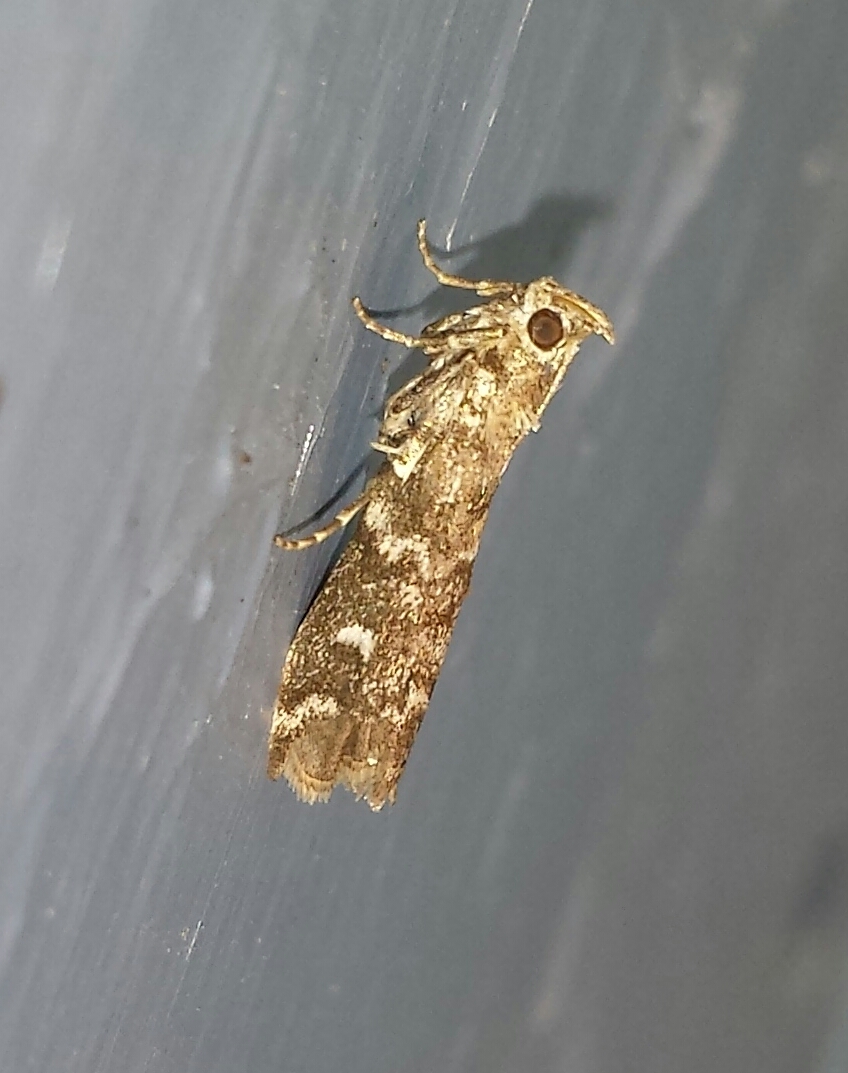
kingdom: Animalia
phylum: Arthropoda
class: Insecta
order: Lepidoptera
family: Pyralidae
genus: Dioryctria
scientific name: Dioryctria reniculelloides
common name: Spruce coneworm moth
